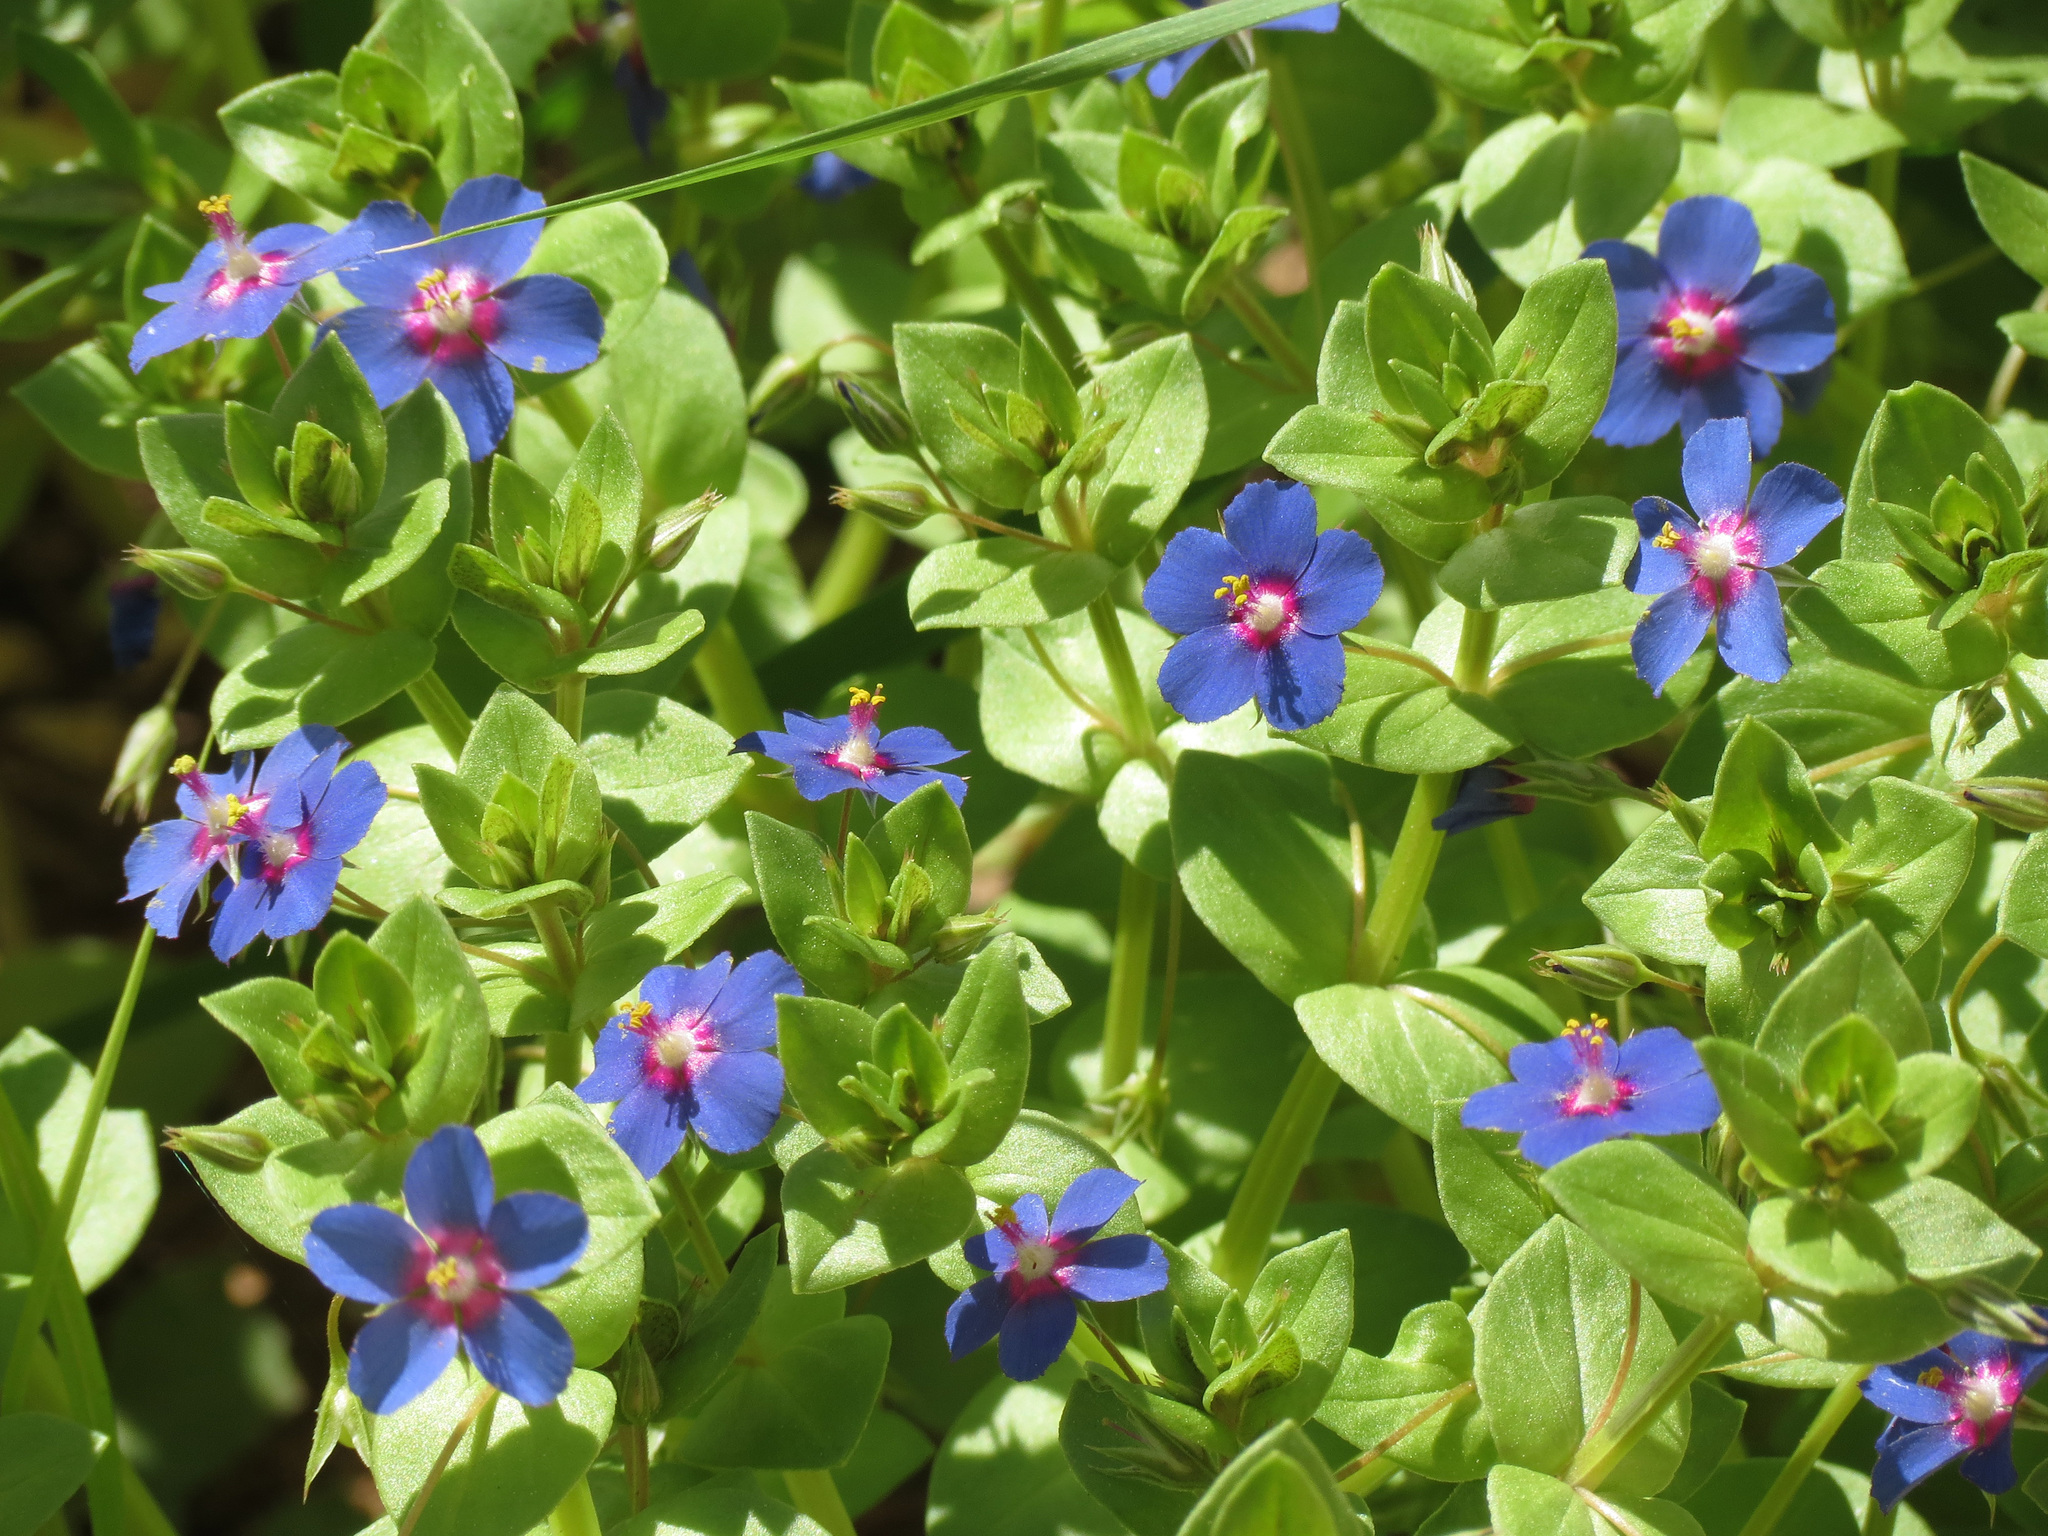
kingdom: Plantae
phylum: Tracheophyta
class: Magnoliopsida
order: Ericales
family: Primulaceae
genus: Lysimachia
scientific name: Lysimachia arvensis
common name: Scarlet pimpernel
